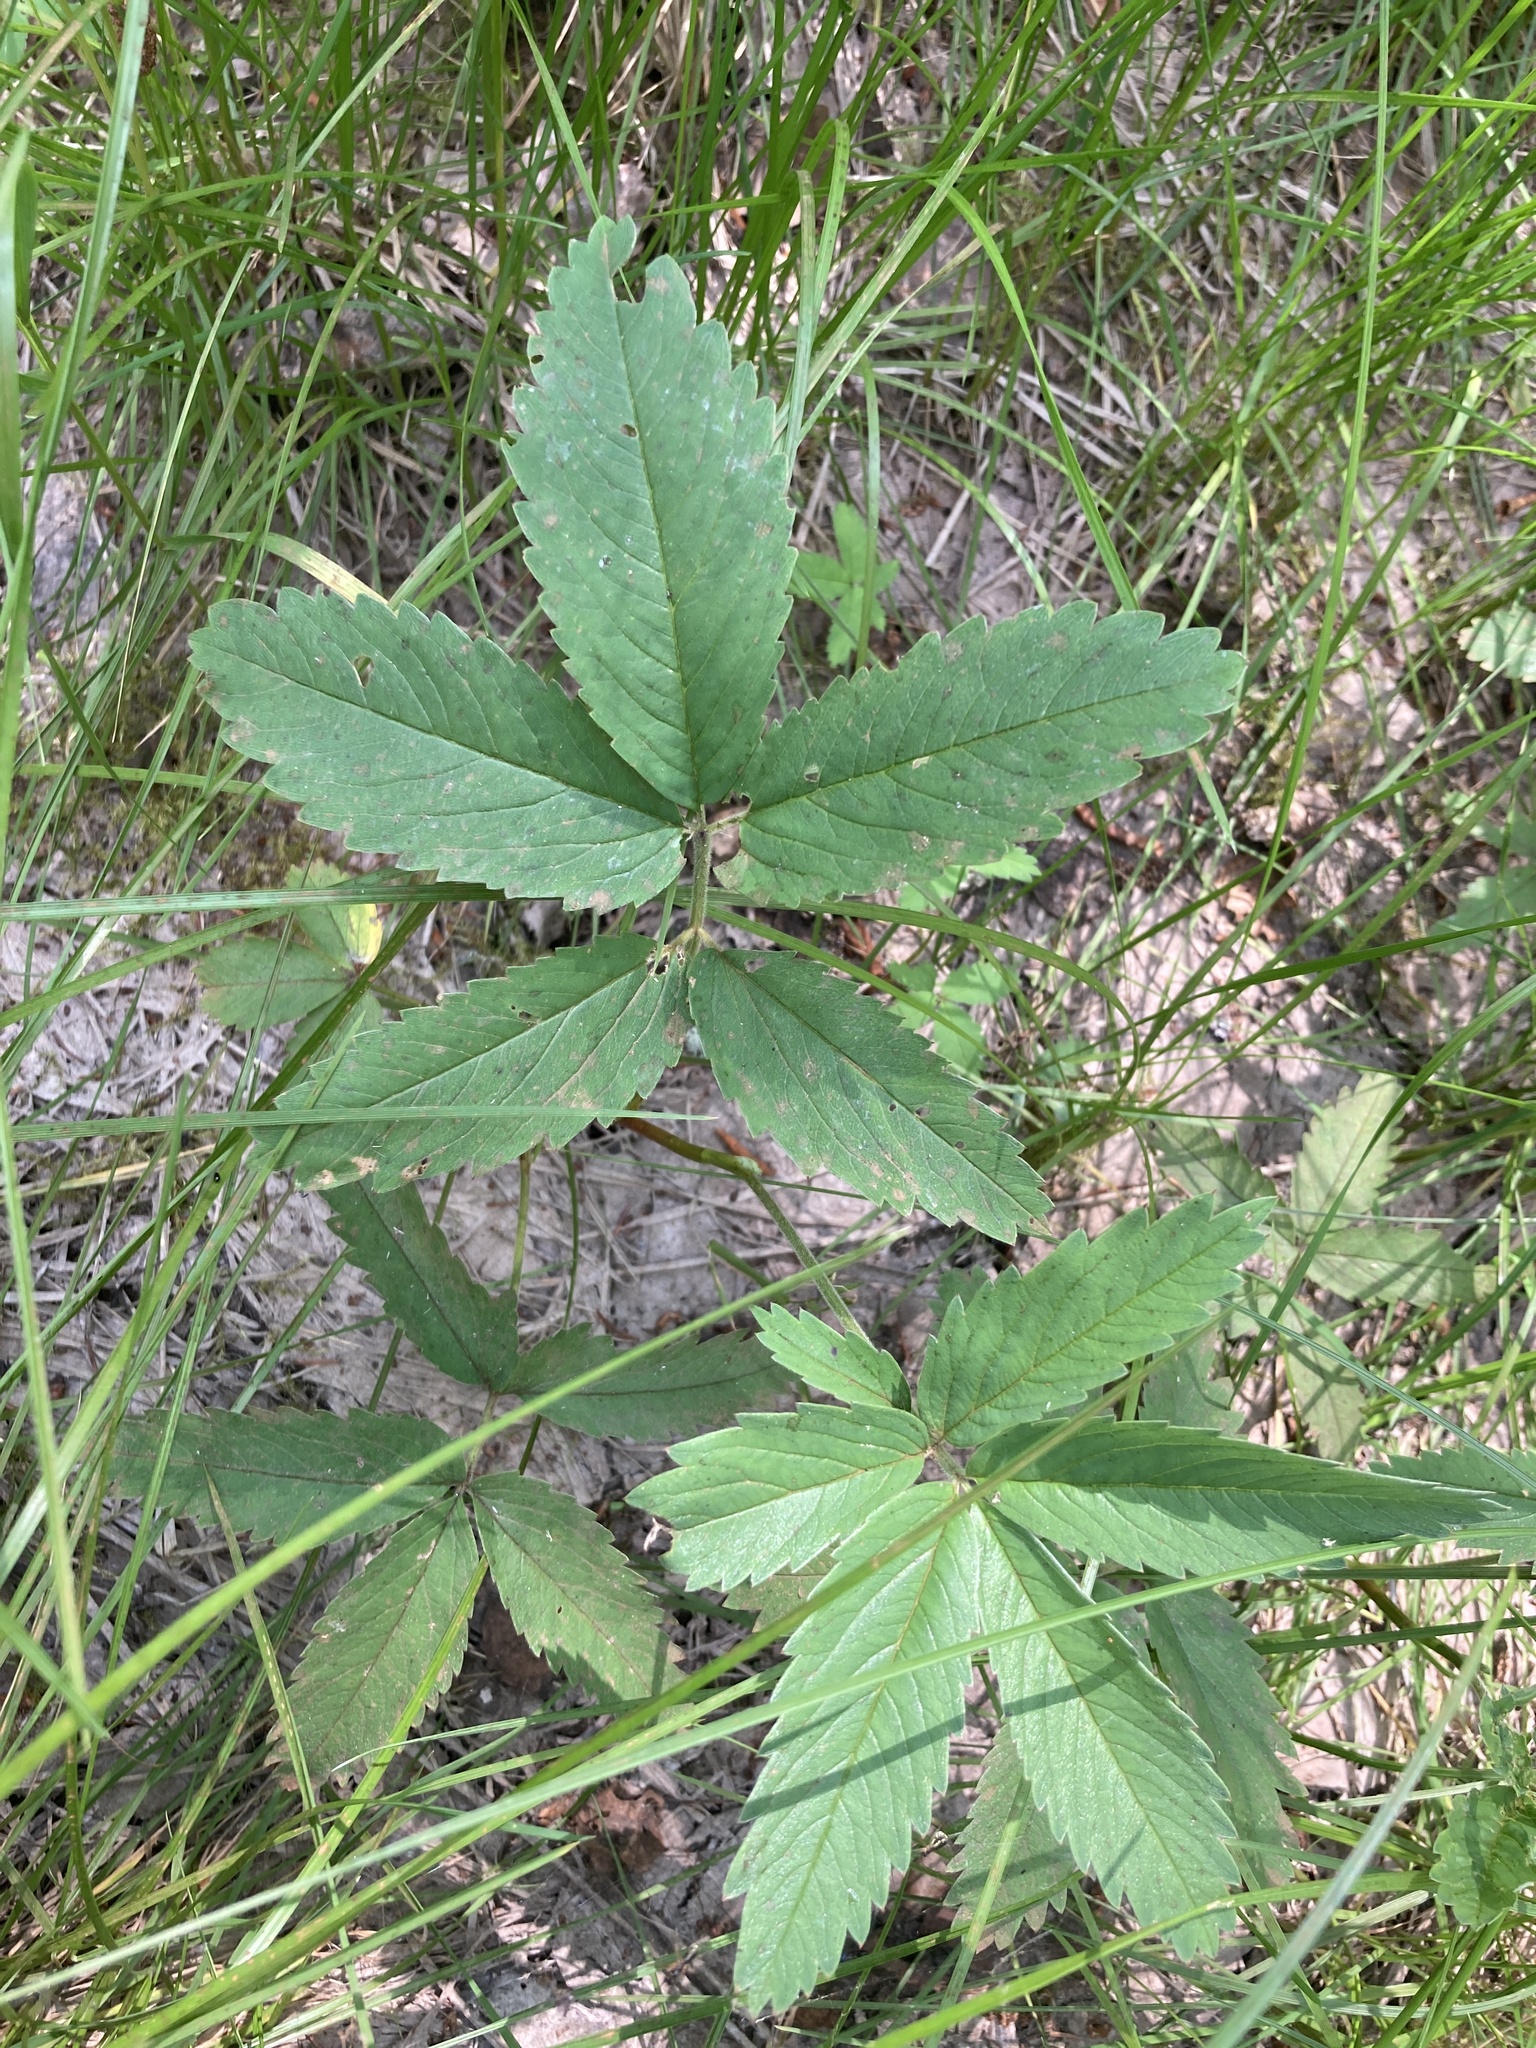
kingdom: Plantae
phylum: Tracheophyta
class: Magnoliopsida
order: Rosales
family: Rosaceae
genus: Comarum
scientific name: Comarum palustre
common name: Marsh cinquefoil
